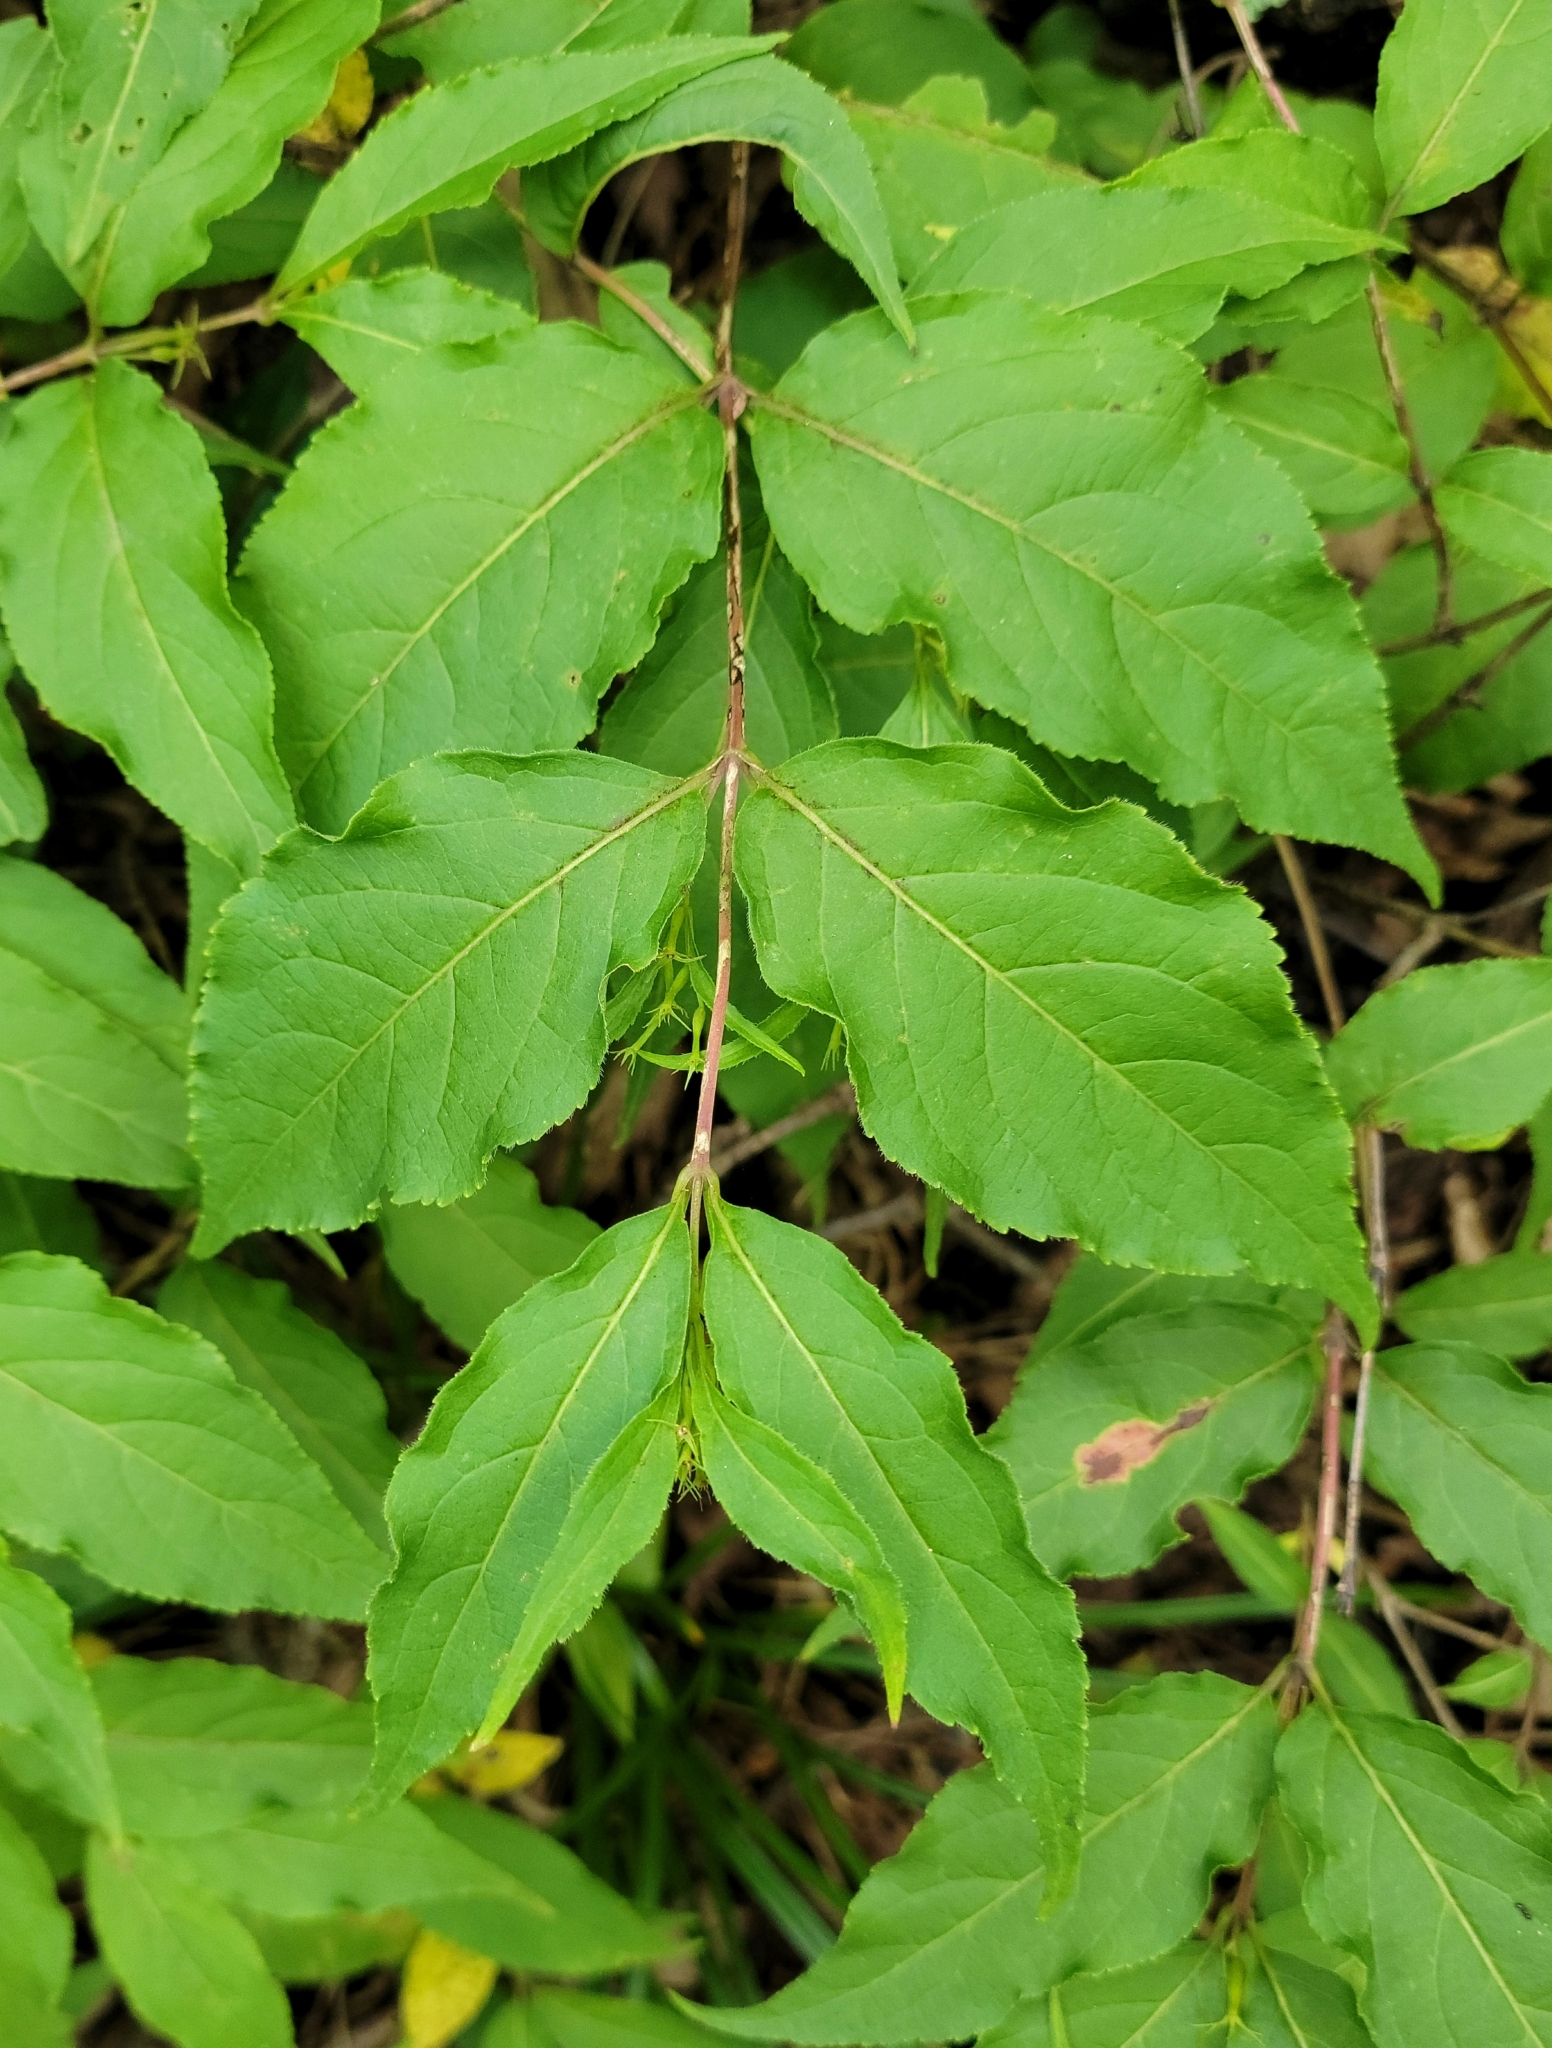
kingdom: Plantae
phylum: Tracheophyta
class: Magnoliopsida
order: Dipsacales
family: Caprifoliaceae
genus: Diervilla
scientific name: Diervilla lonicera
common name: Bush-honeysuckle
